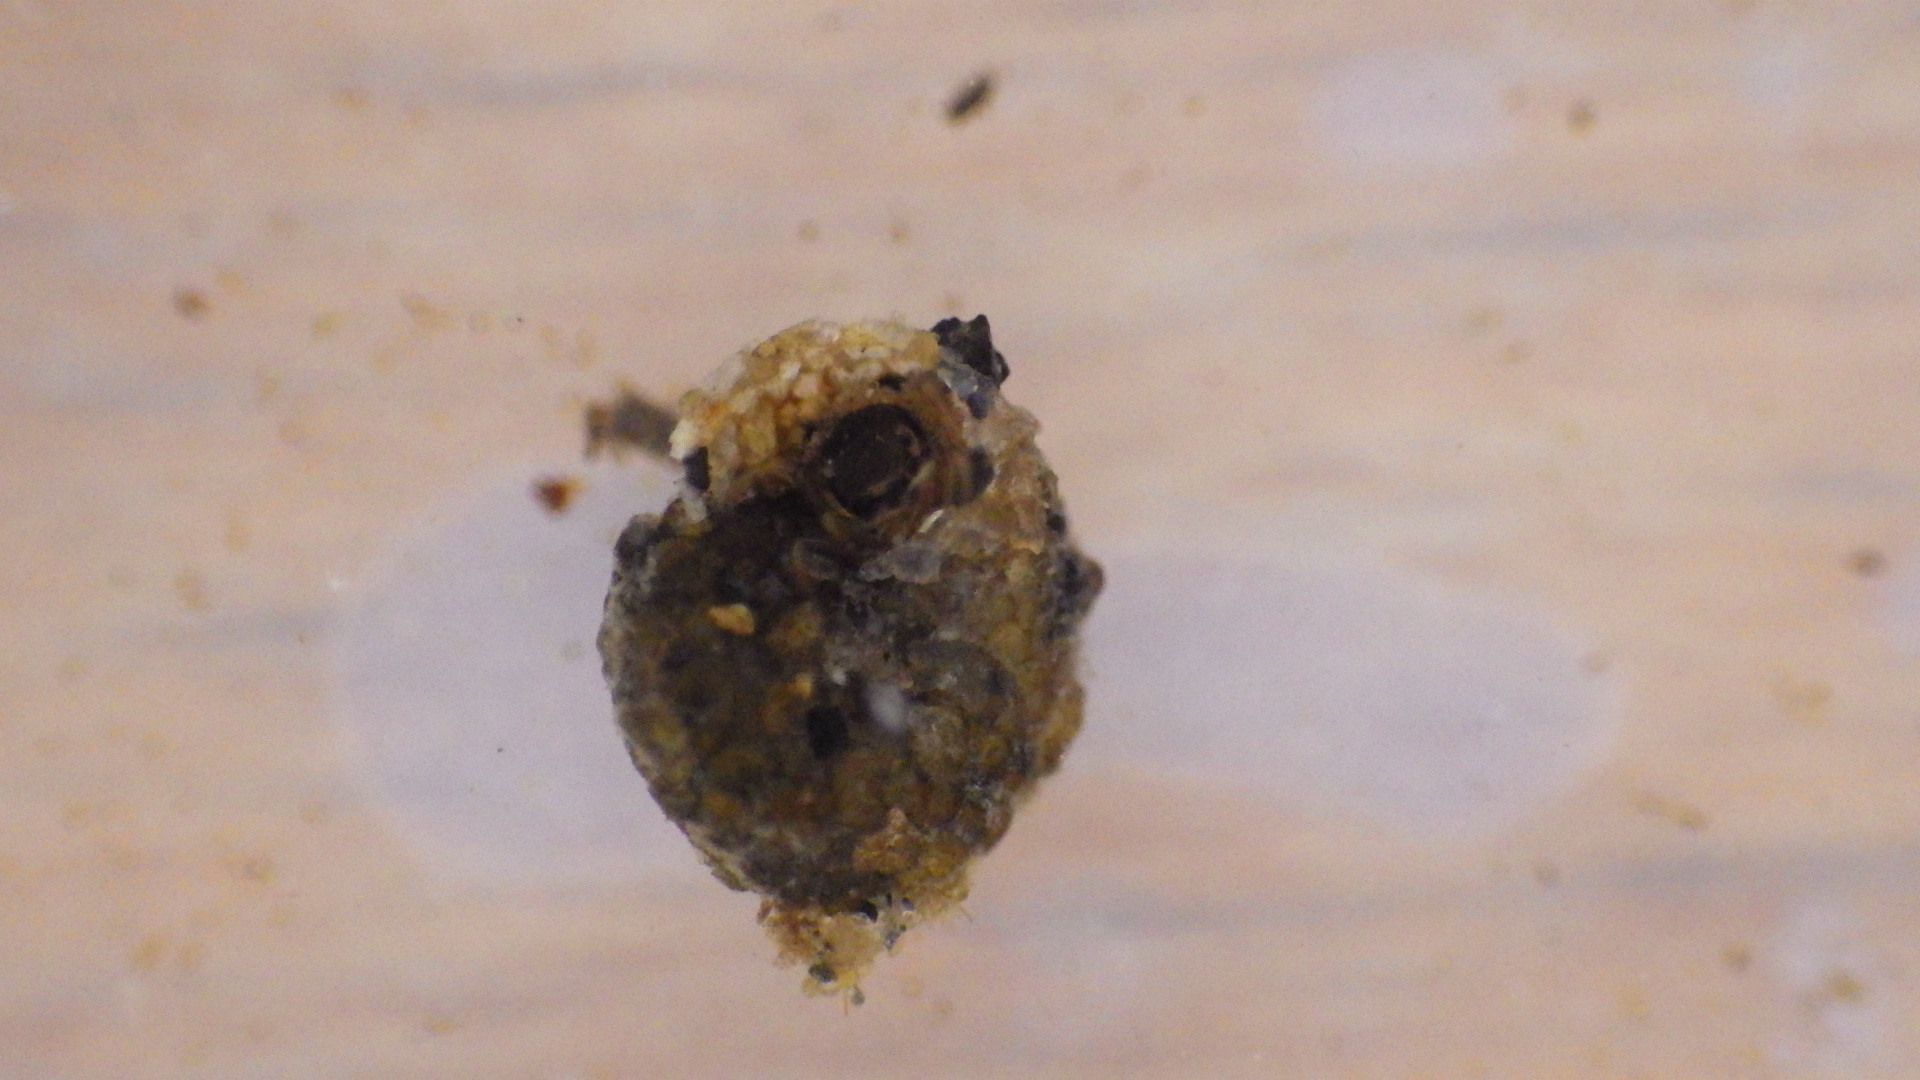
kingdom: Animalia
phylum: Arthropoda
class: Insecta
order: Trichoptera
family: Helicopsychidae
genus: Helicopsyche
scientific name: Helicopsyche borealis
